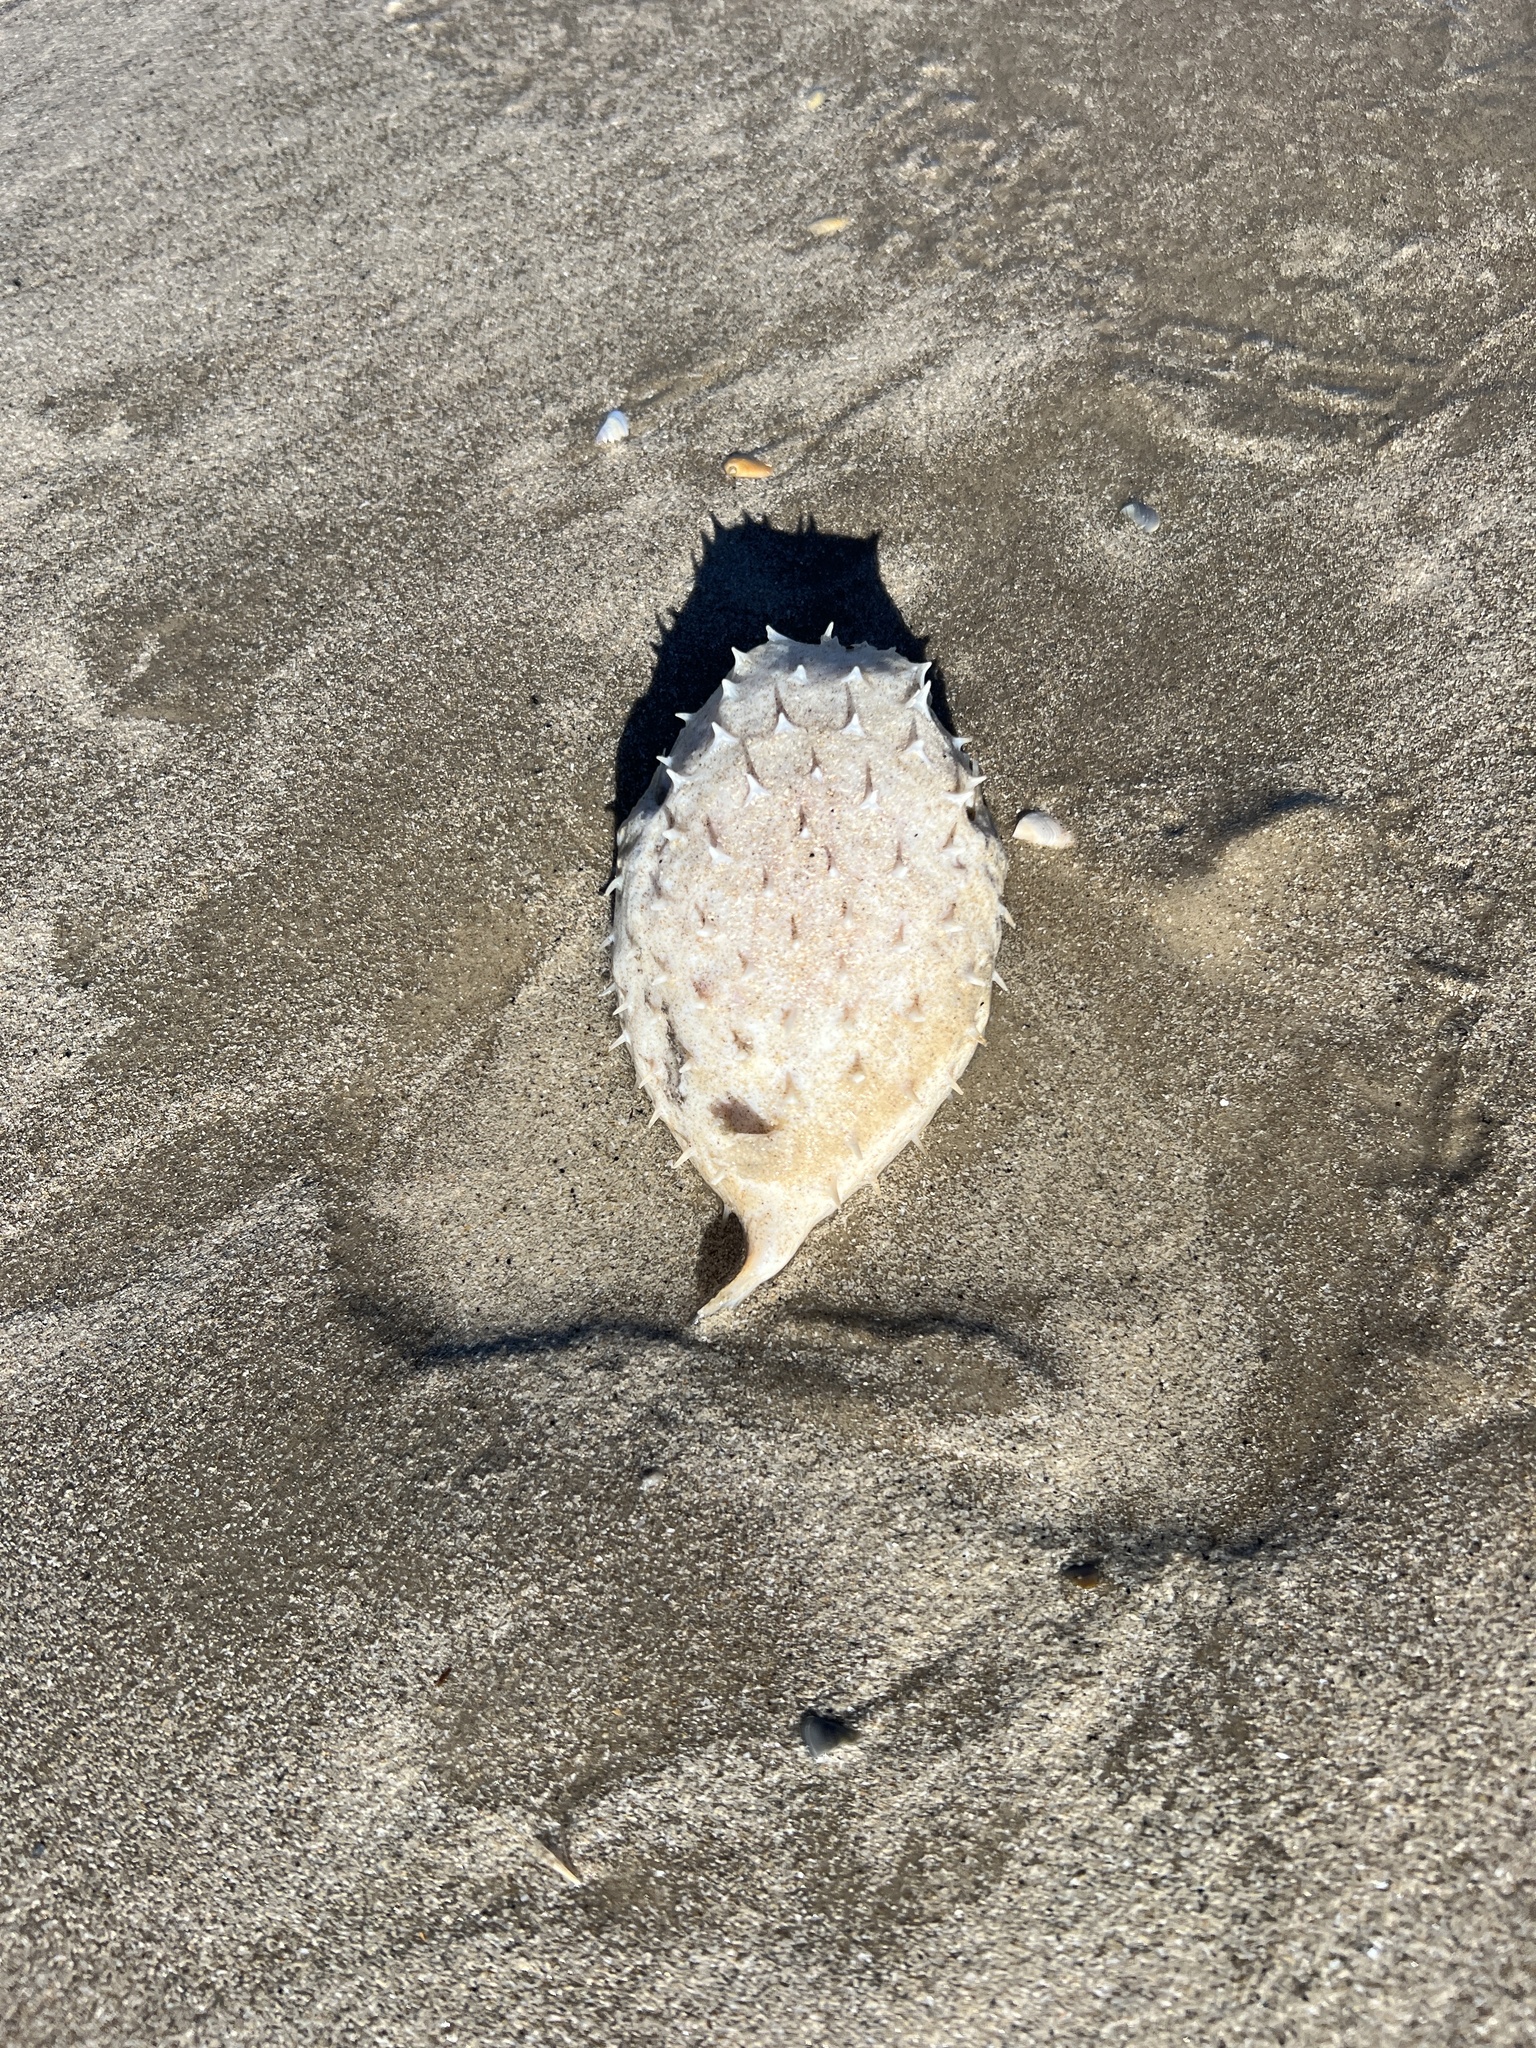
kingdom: Animalia
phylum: Chordata
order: Tetraodontiformes
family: Diodontidae
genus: Chilomycterus
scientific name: Chilomycterus schoepfii
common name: Striped burrfish
